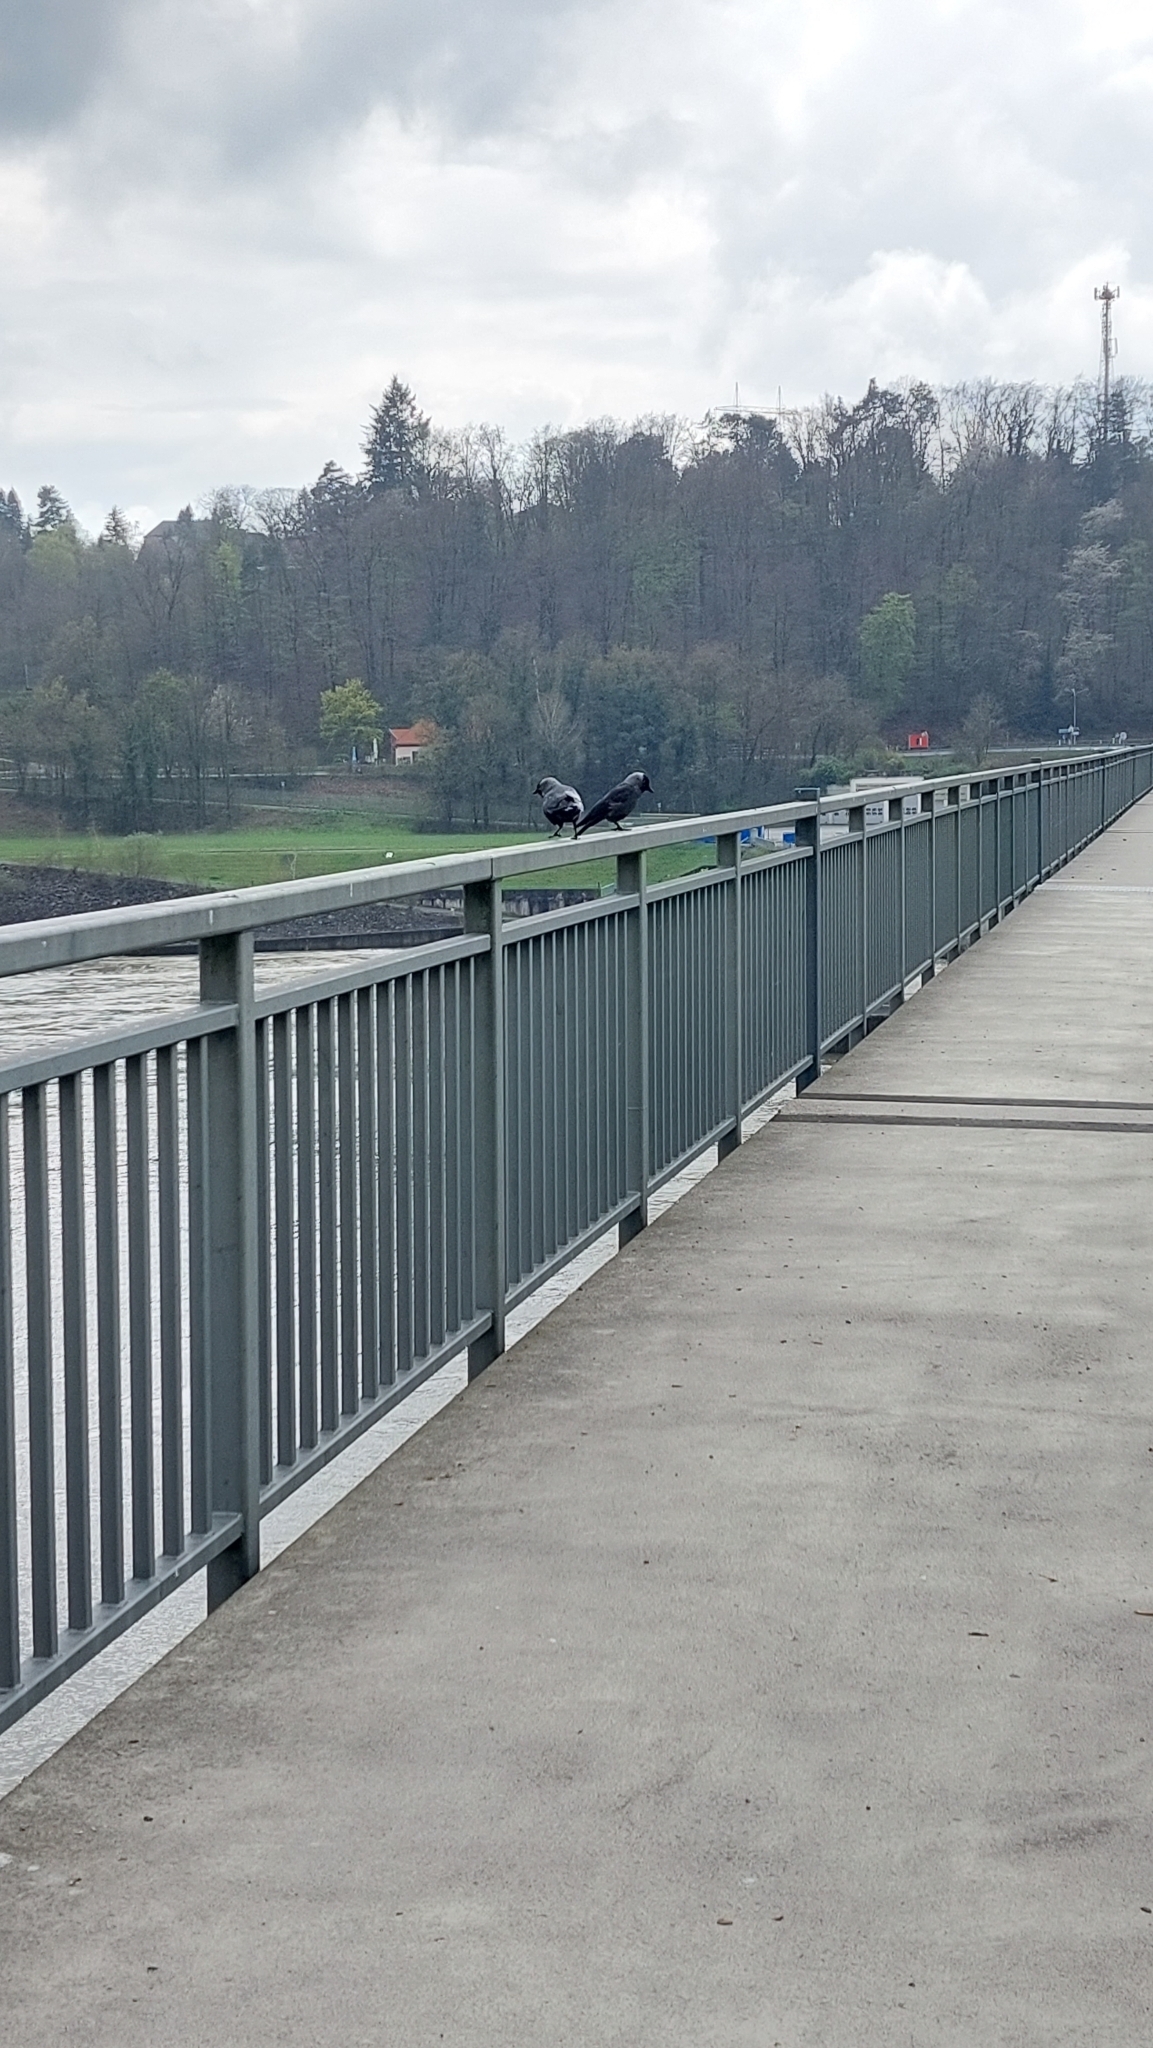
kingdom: Animalia
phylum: Chordata
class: Aves
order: Passeriformes
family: Corvidae
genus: Coloeus
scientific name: Coloeus monedula
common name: Western jackdaw
